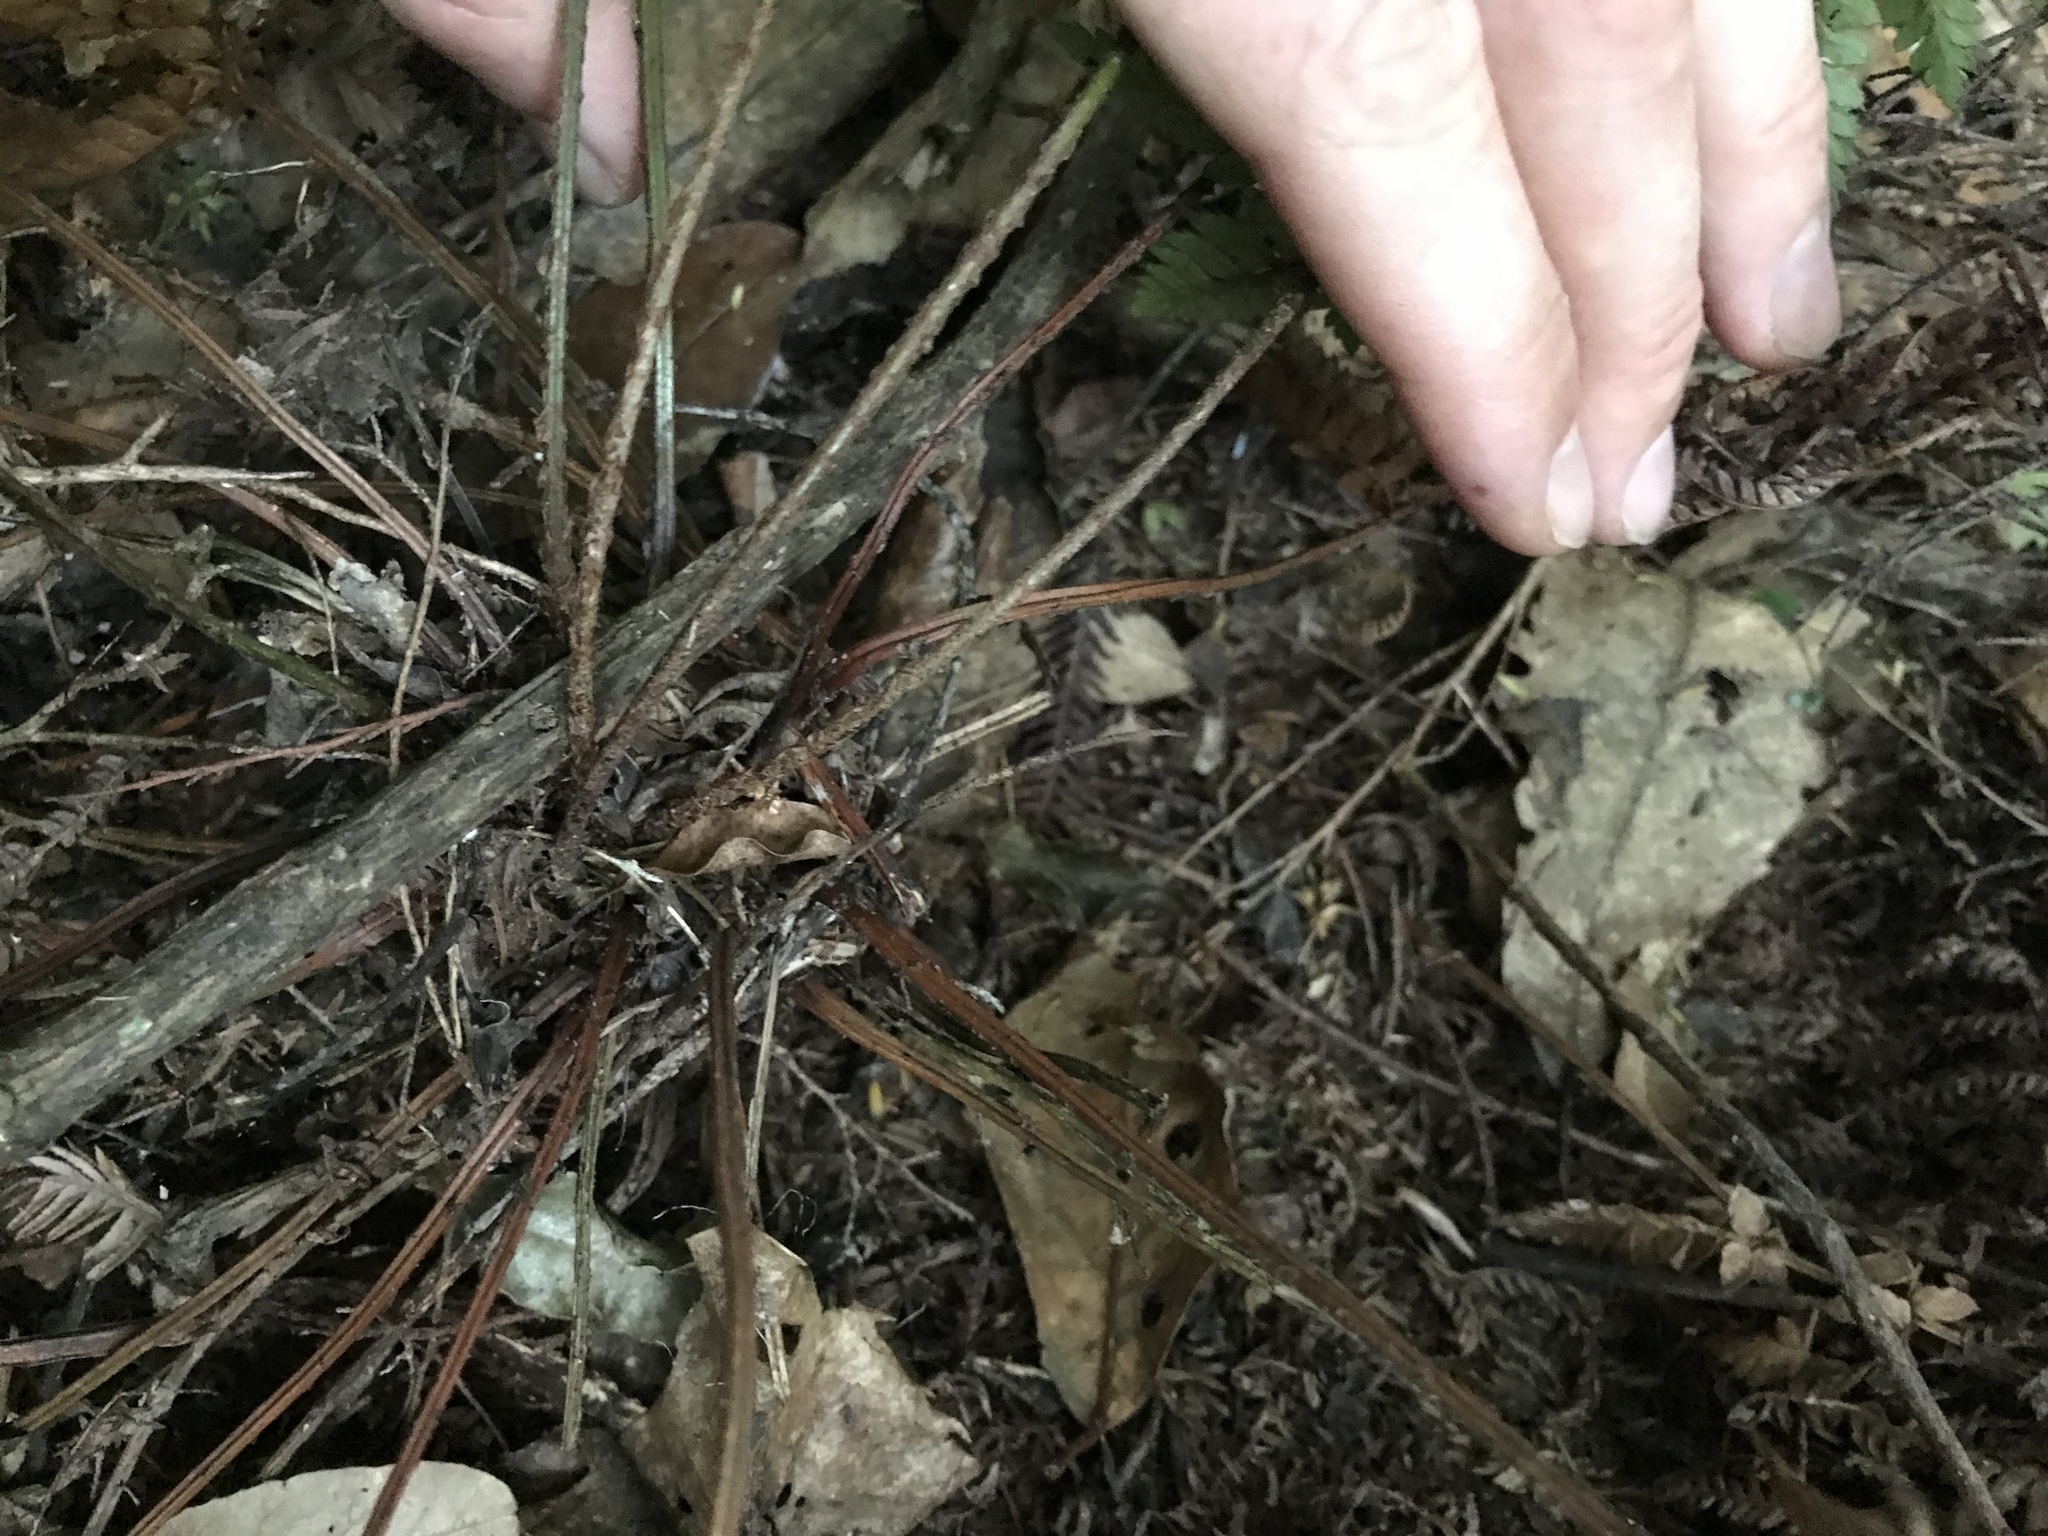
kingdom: Plantae
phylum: Tracheophyta
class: Polypodiopsida
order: Polypodiales
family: Aspleniaceae
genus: Asplenium
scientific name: Asplenium oblongifolium
